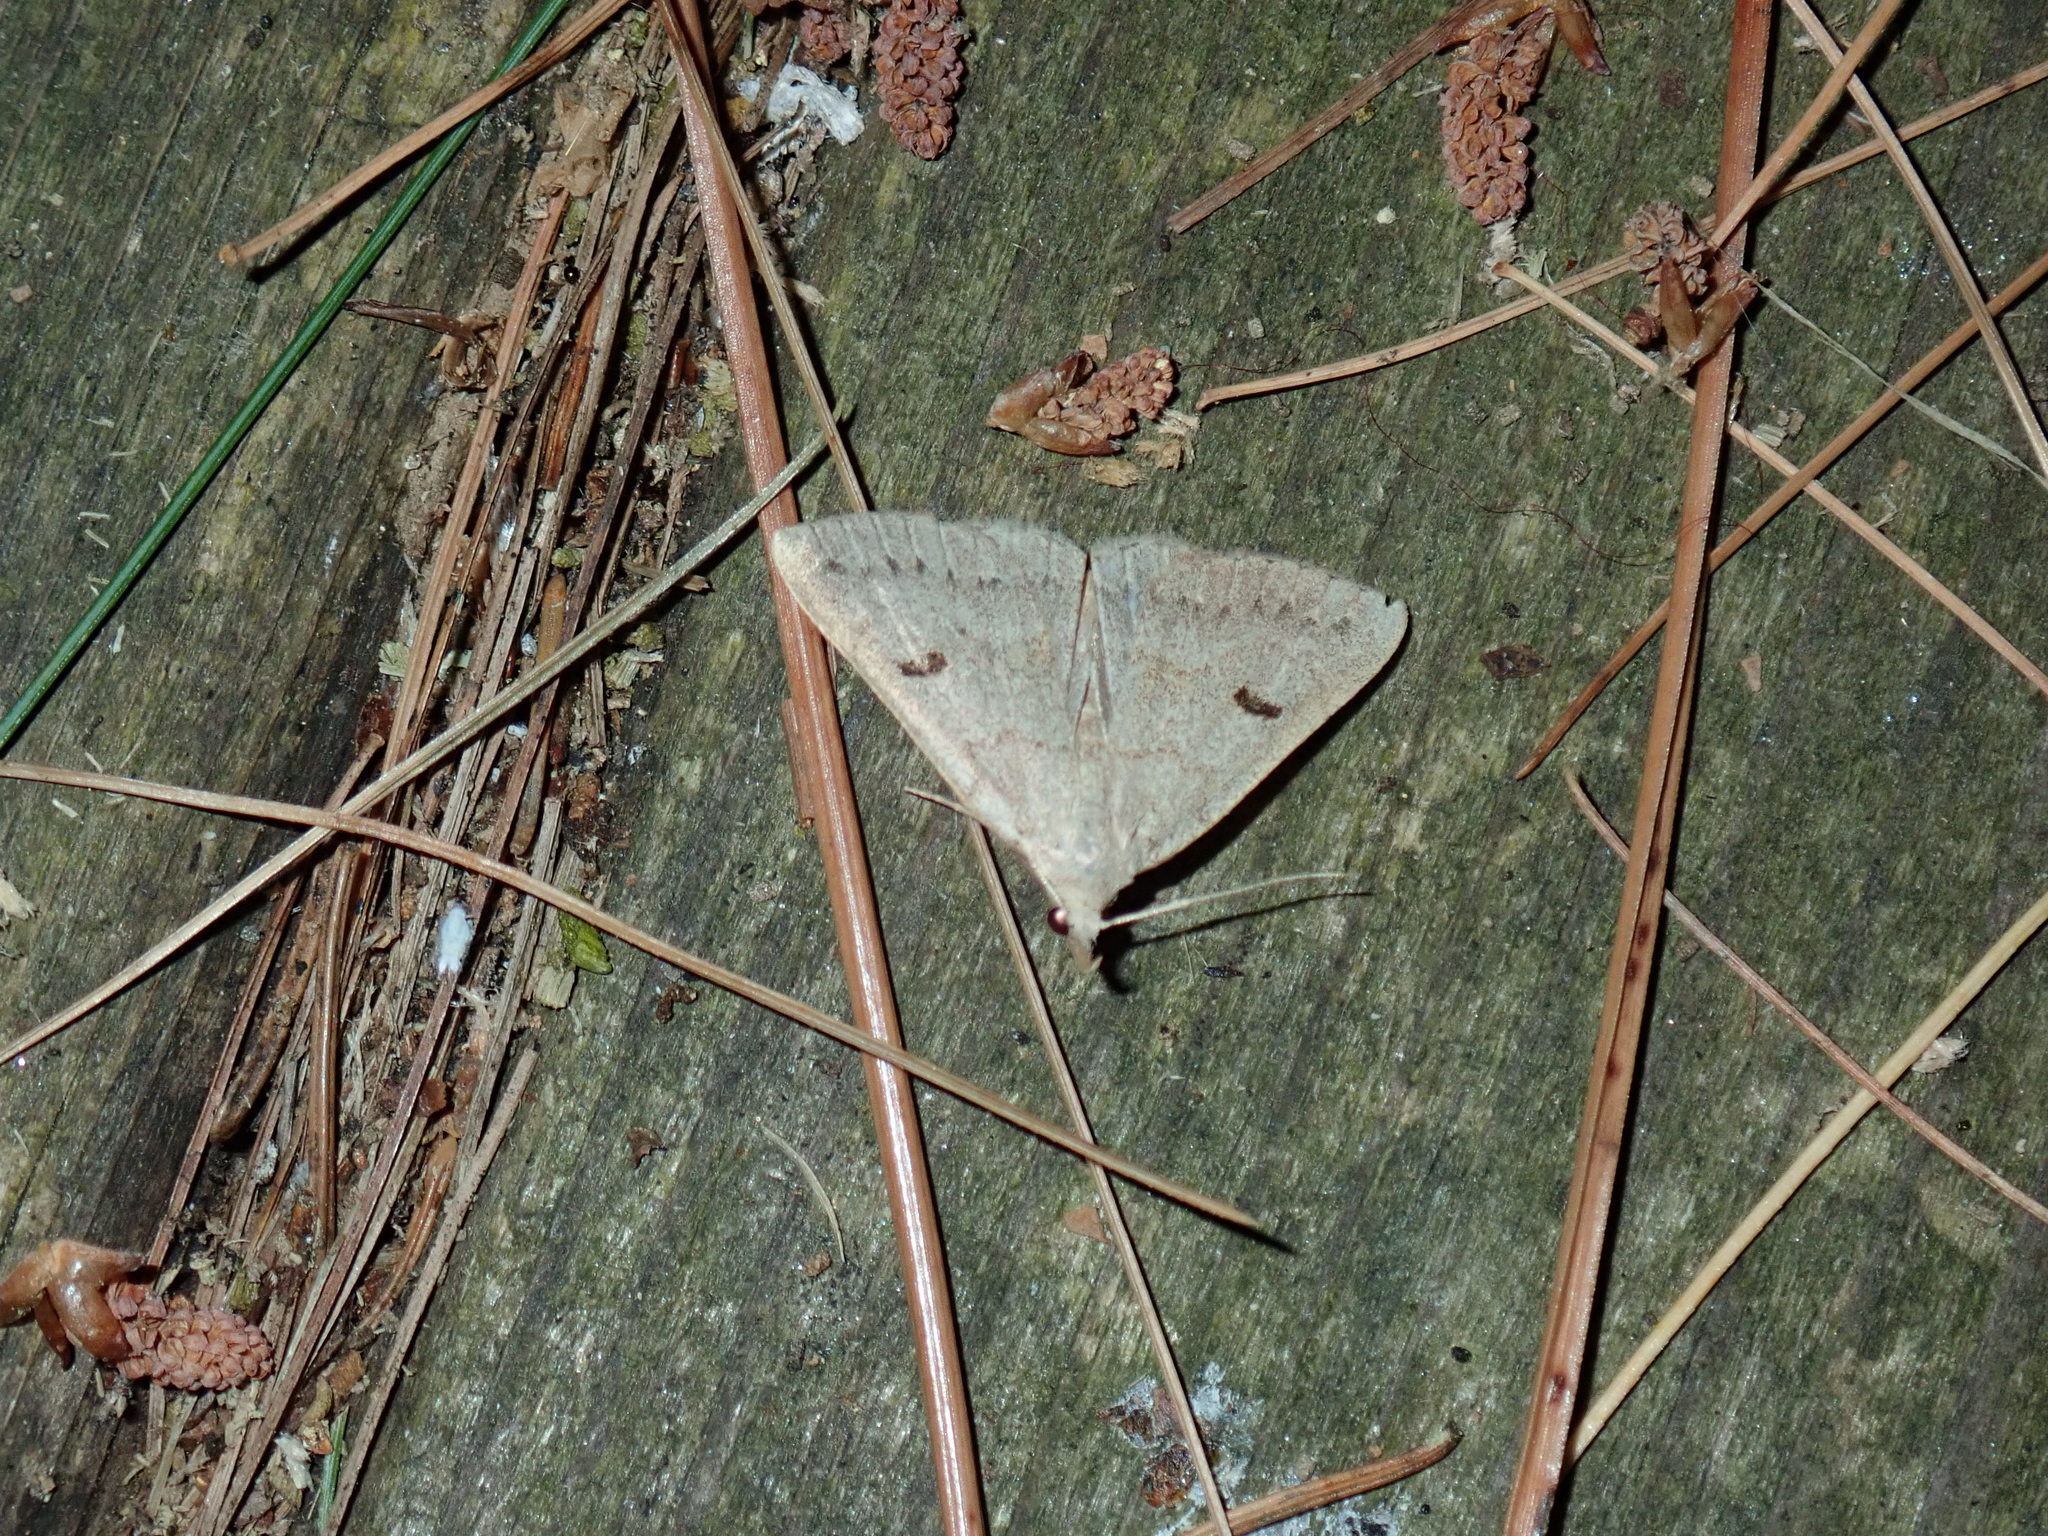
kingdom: Animalia
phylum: Arthropoda
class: Insecta
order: Lepidoptera
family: Erebidae
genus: Macrochilo
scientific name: Macrochilo morbidalis
